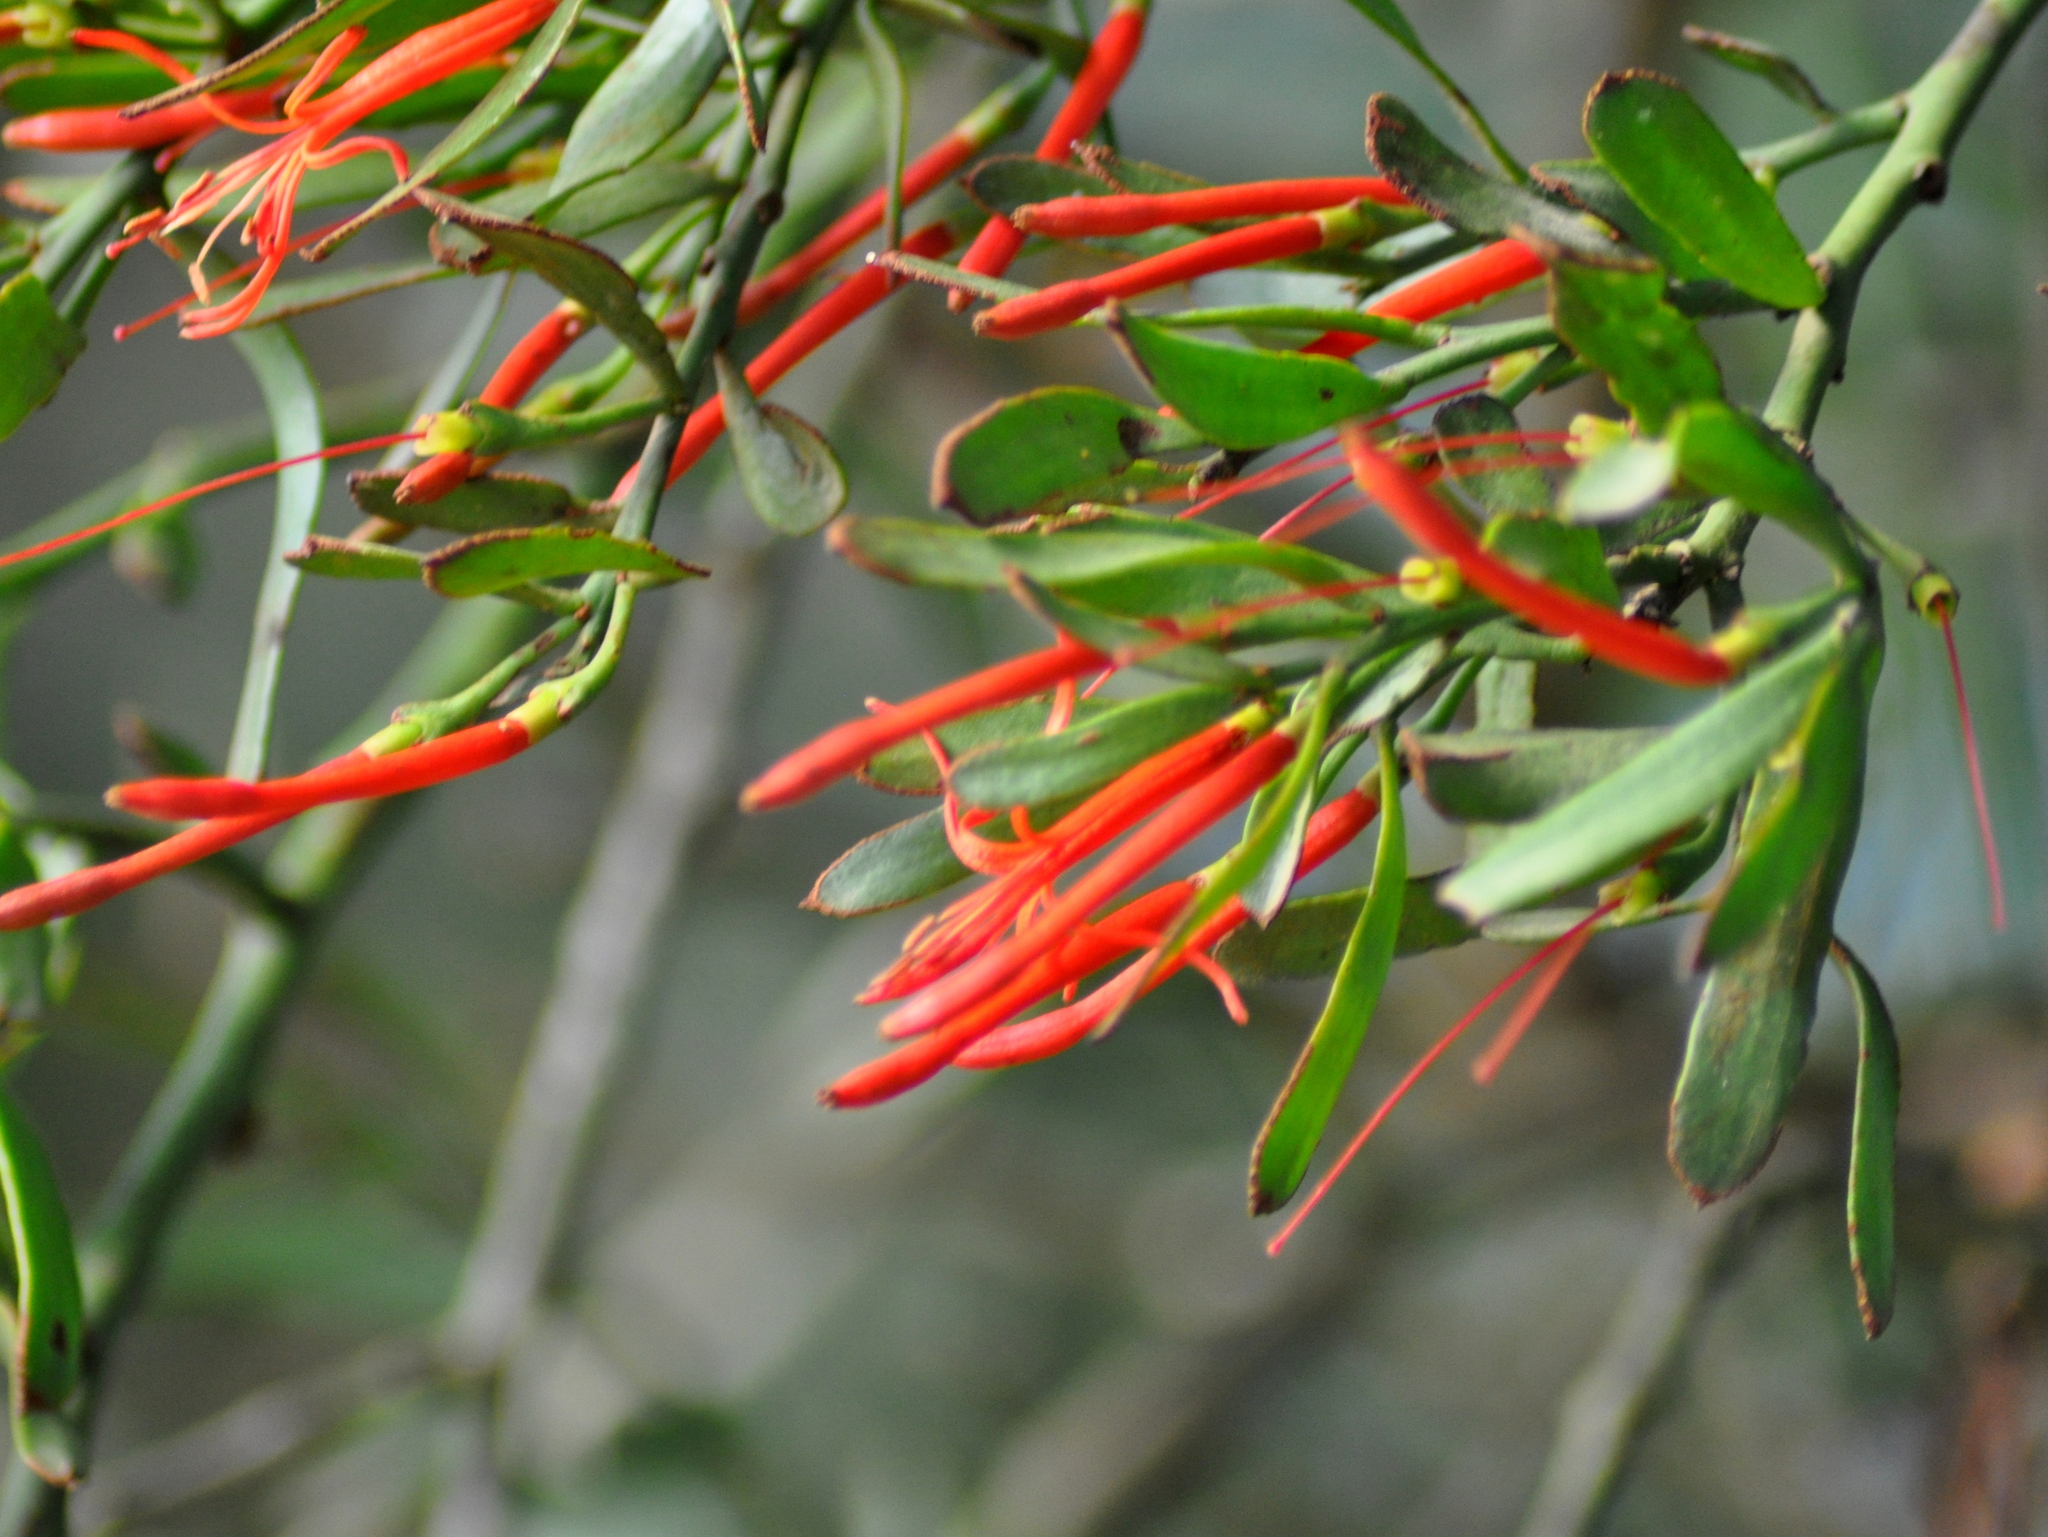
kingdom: Plantae
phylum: Tracheophyta
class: Magnoliopsida
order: Santalales
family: Loranthaceae
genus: Ligaria
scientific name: Ligaria cuneifolia
